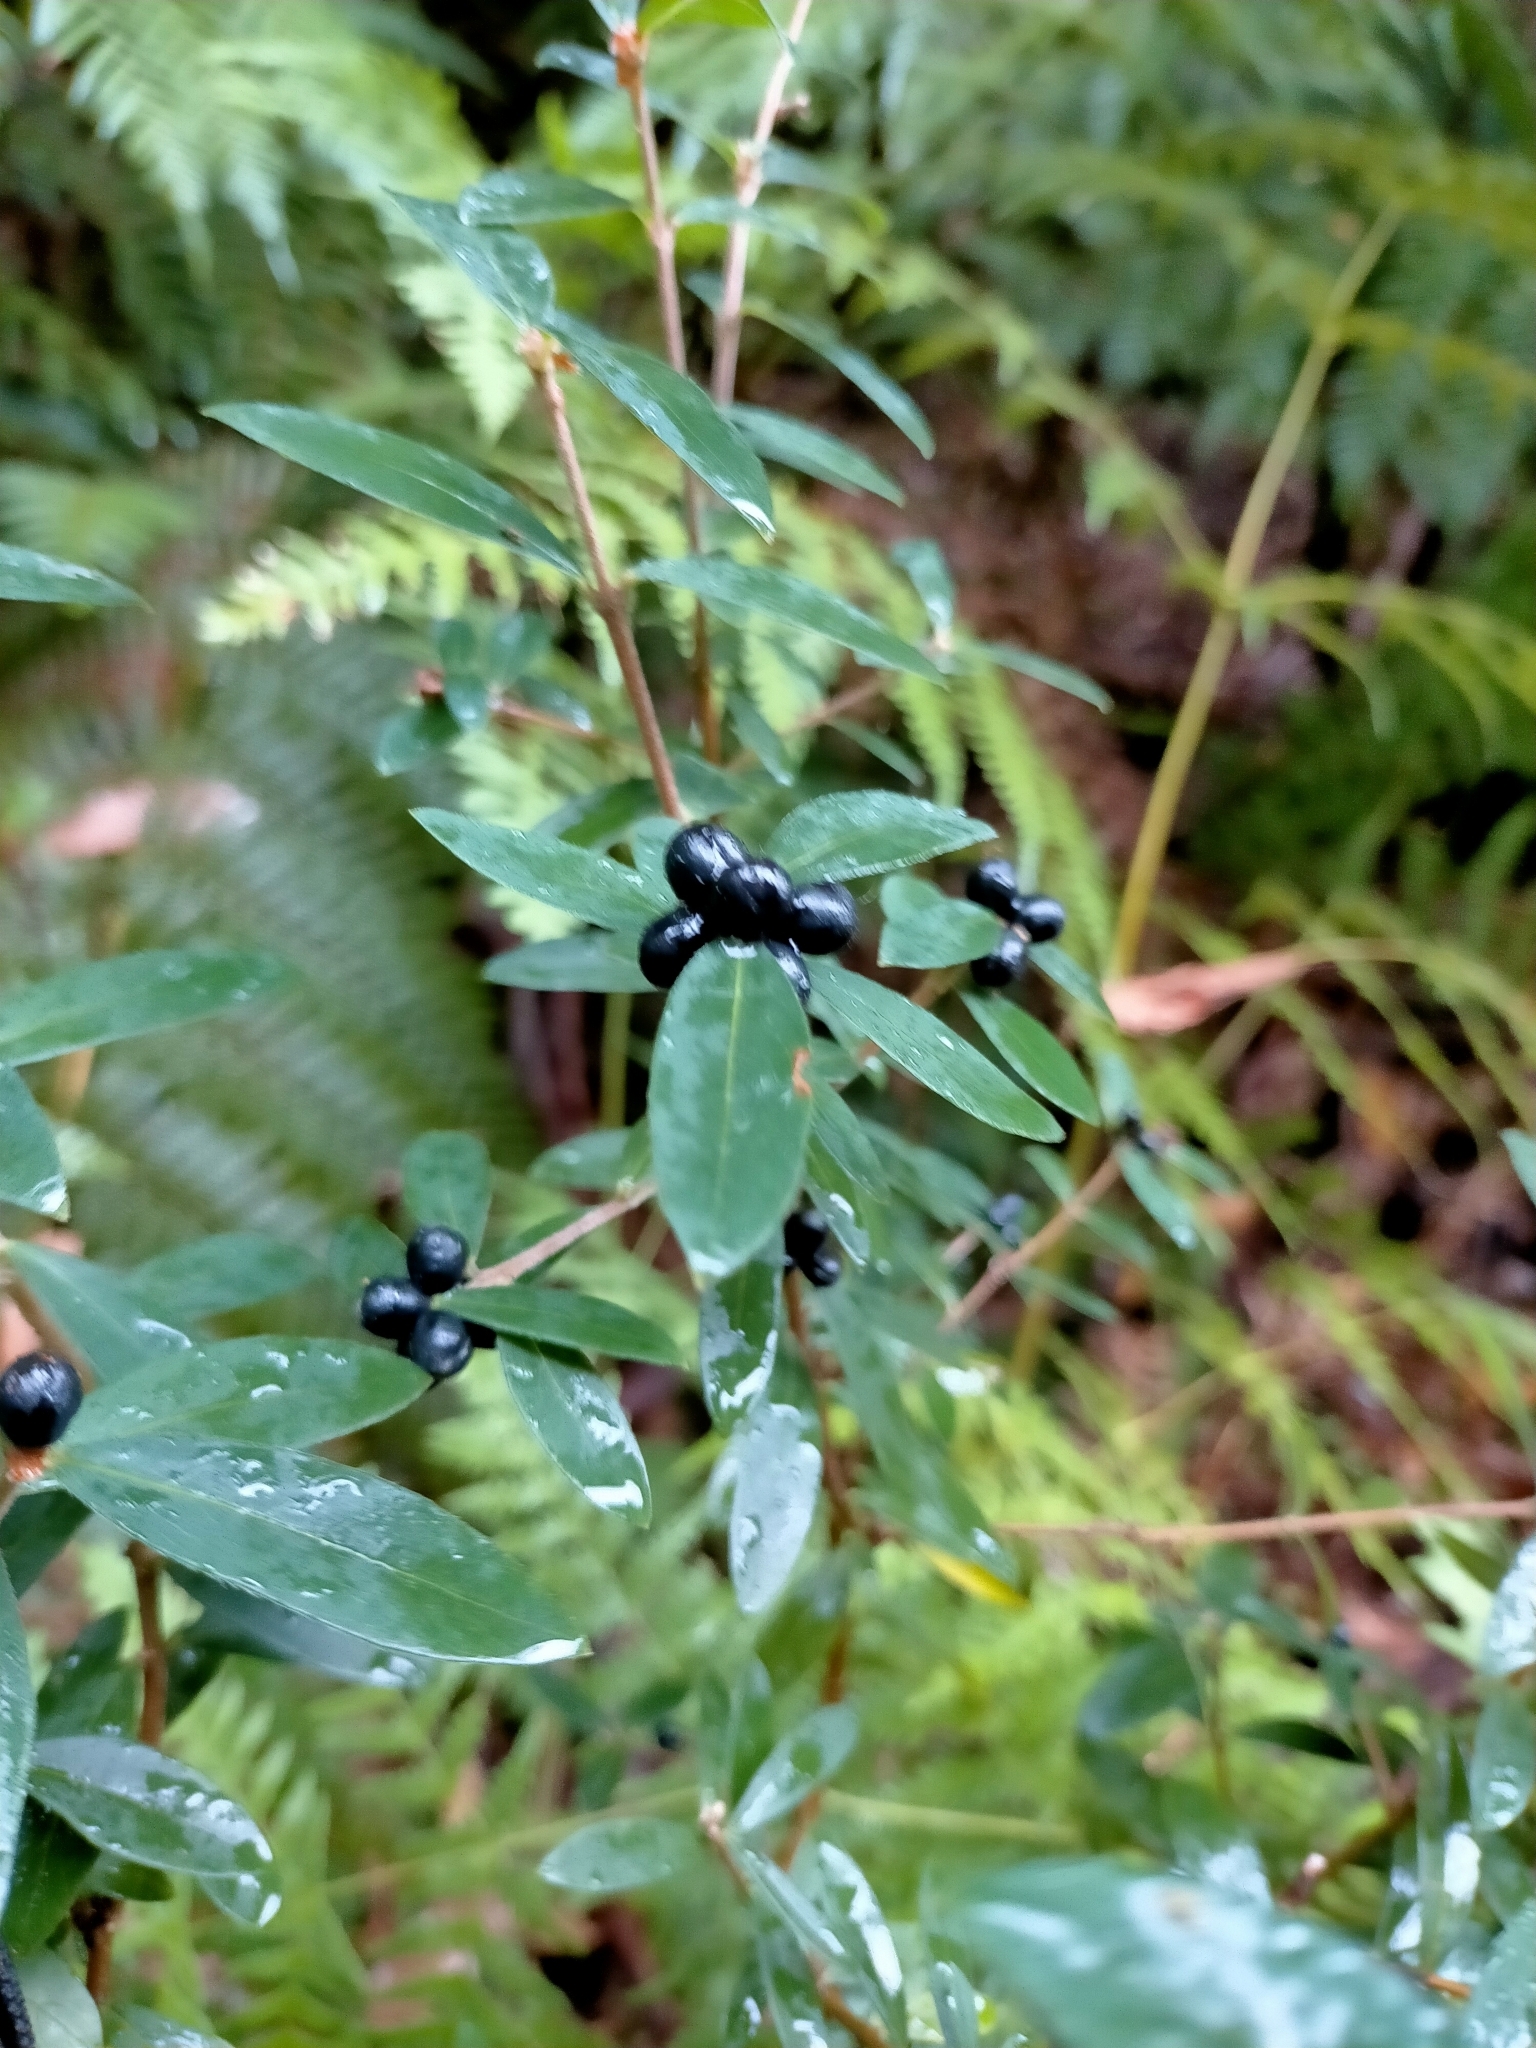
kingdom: Plantae
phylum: Tracheophyta
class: Magnoliopsida
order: Malvales
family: Thymelaeaceae
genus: Pimelea
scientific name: Pimelea drupacea
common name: Cherry riceflower
